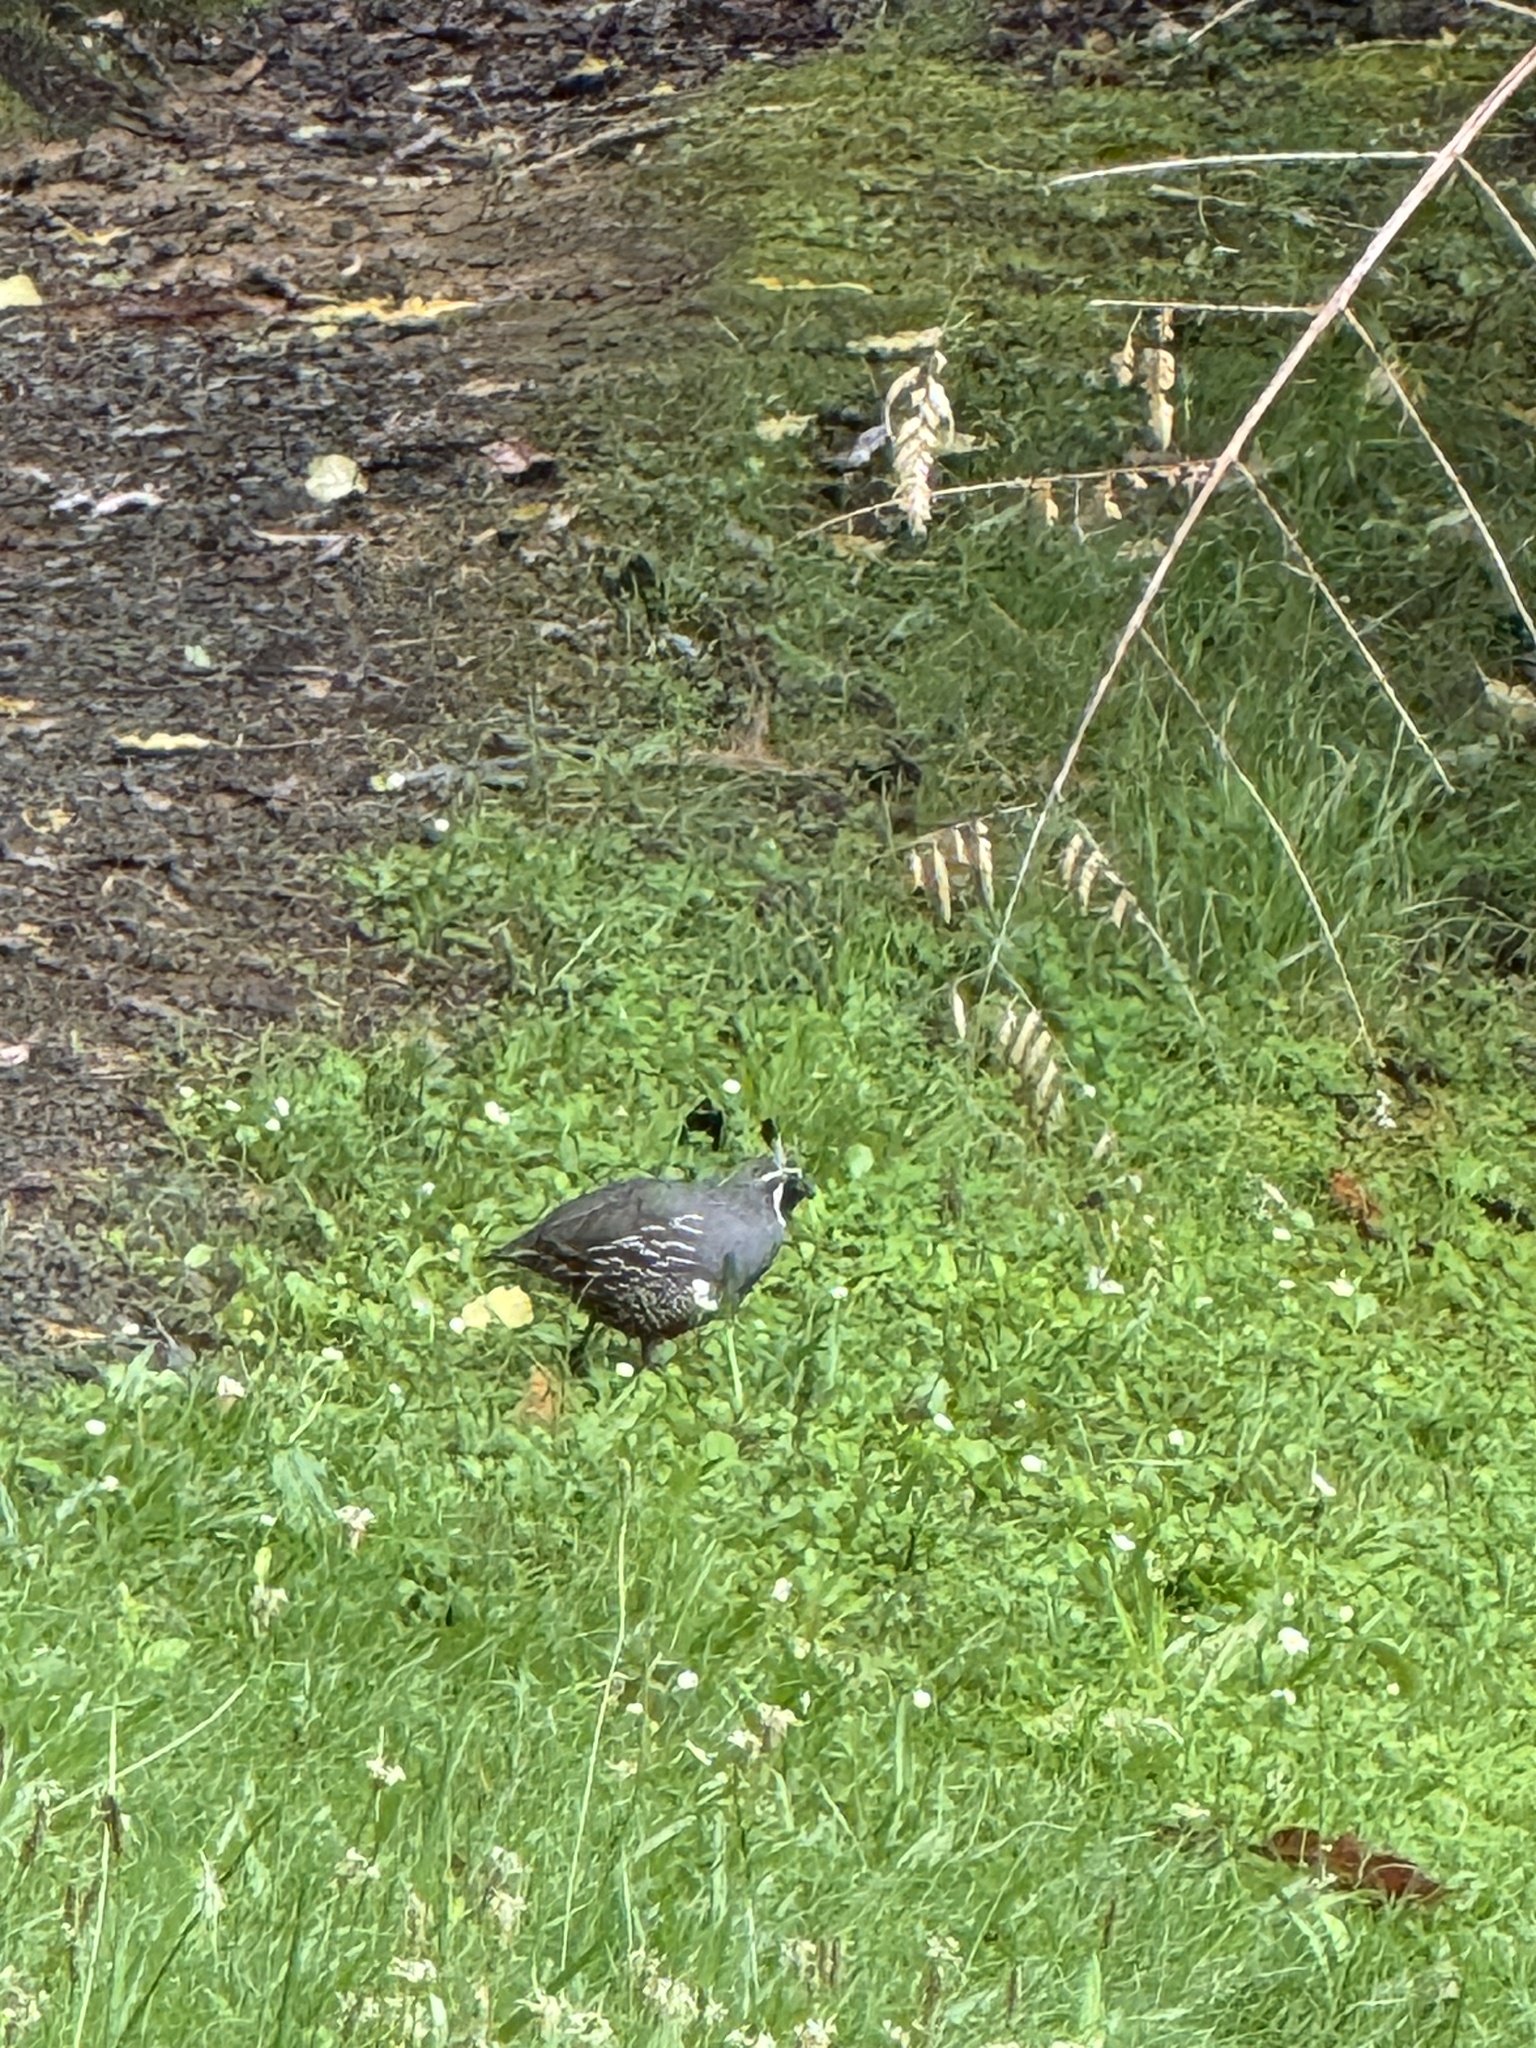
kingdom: Animalia
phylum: Chordata
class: Aves
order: Galliformes
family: Odontophoridae
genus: Callipepla
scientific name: Callipepla californica
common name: California quail
